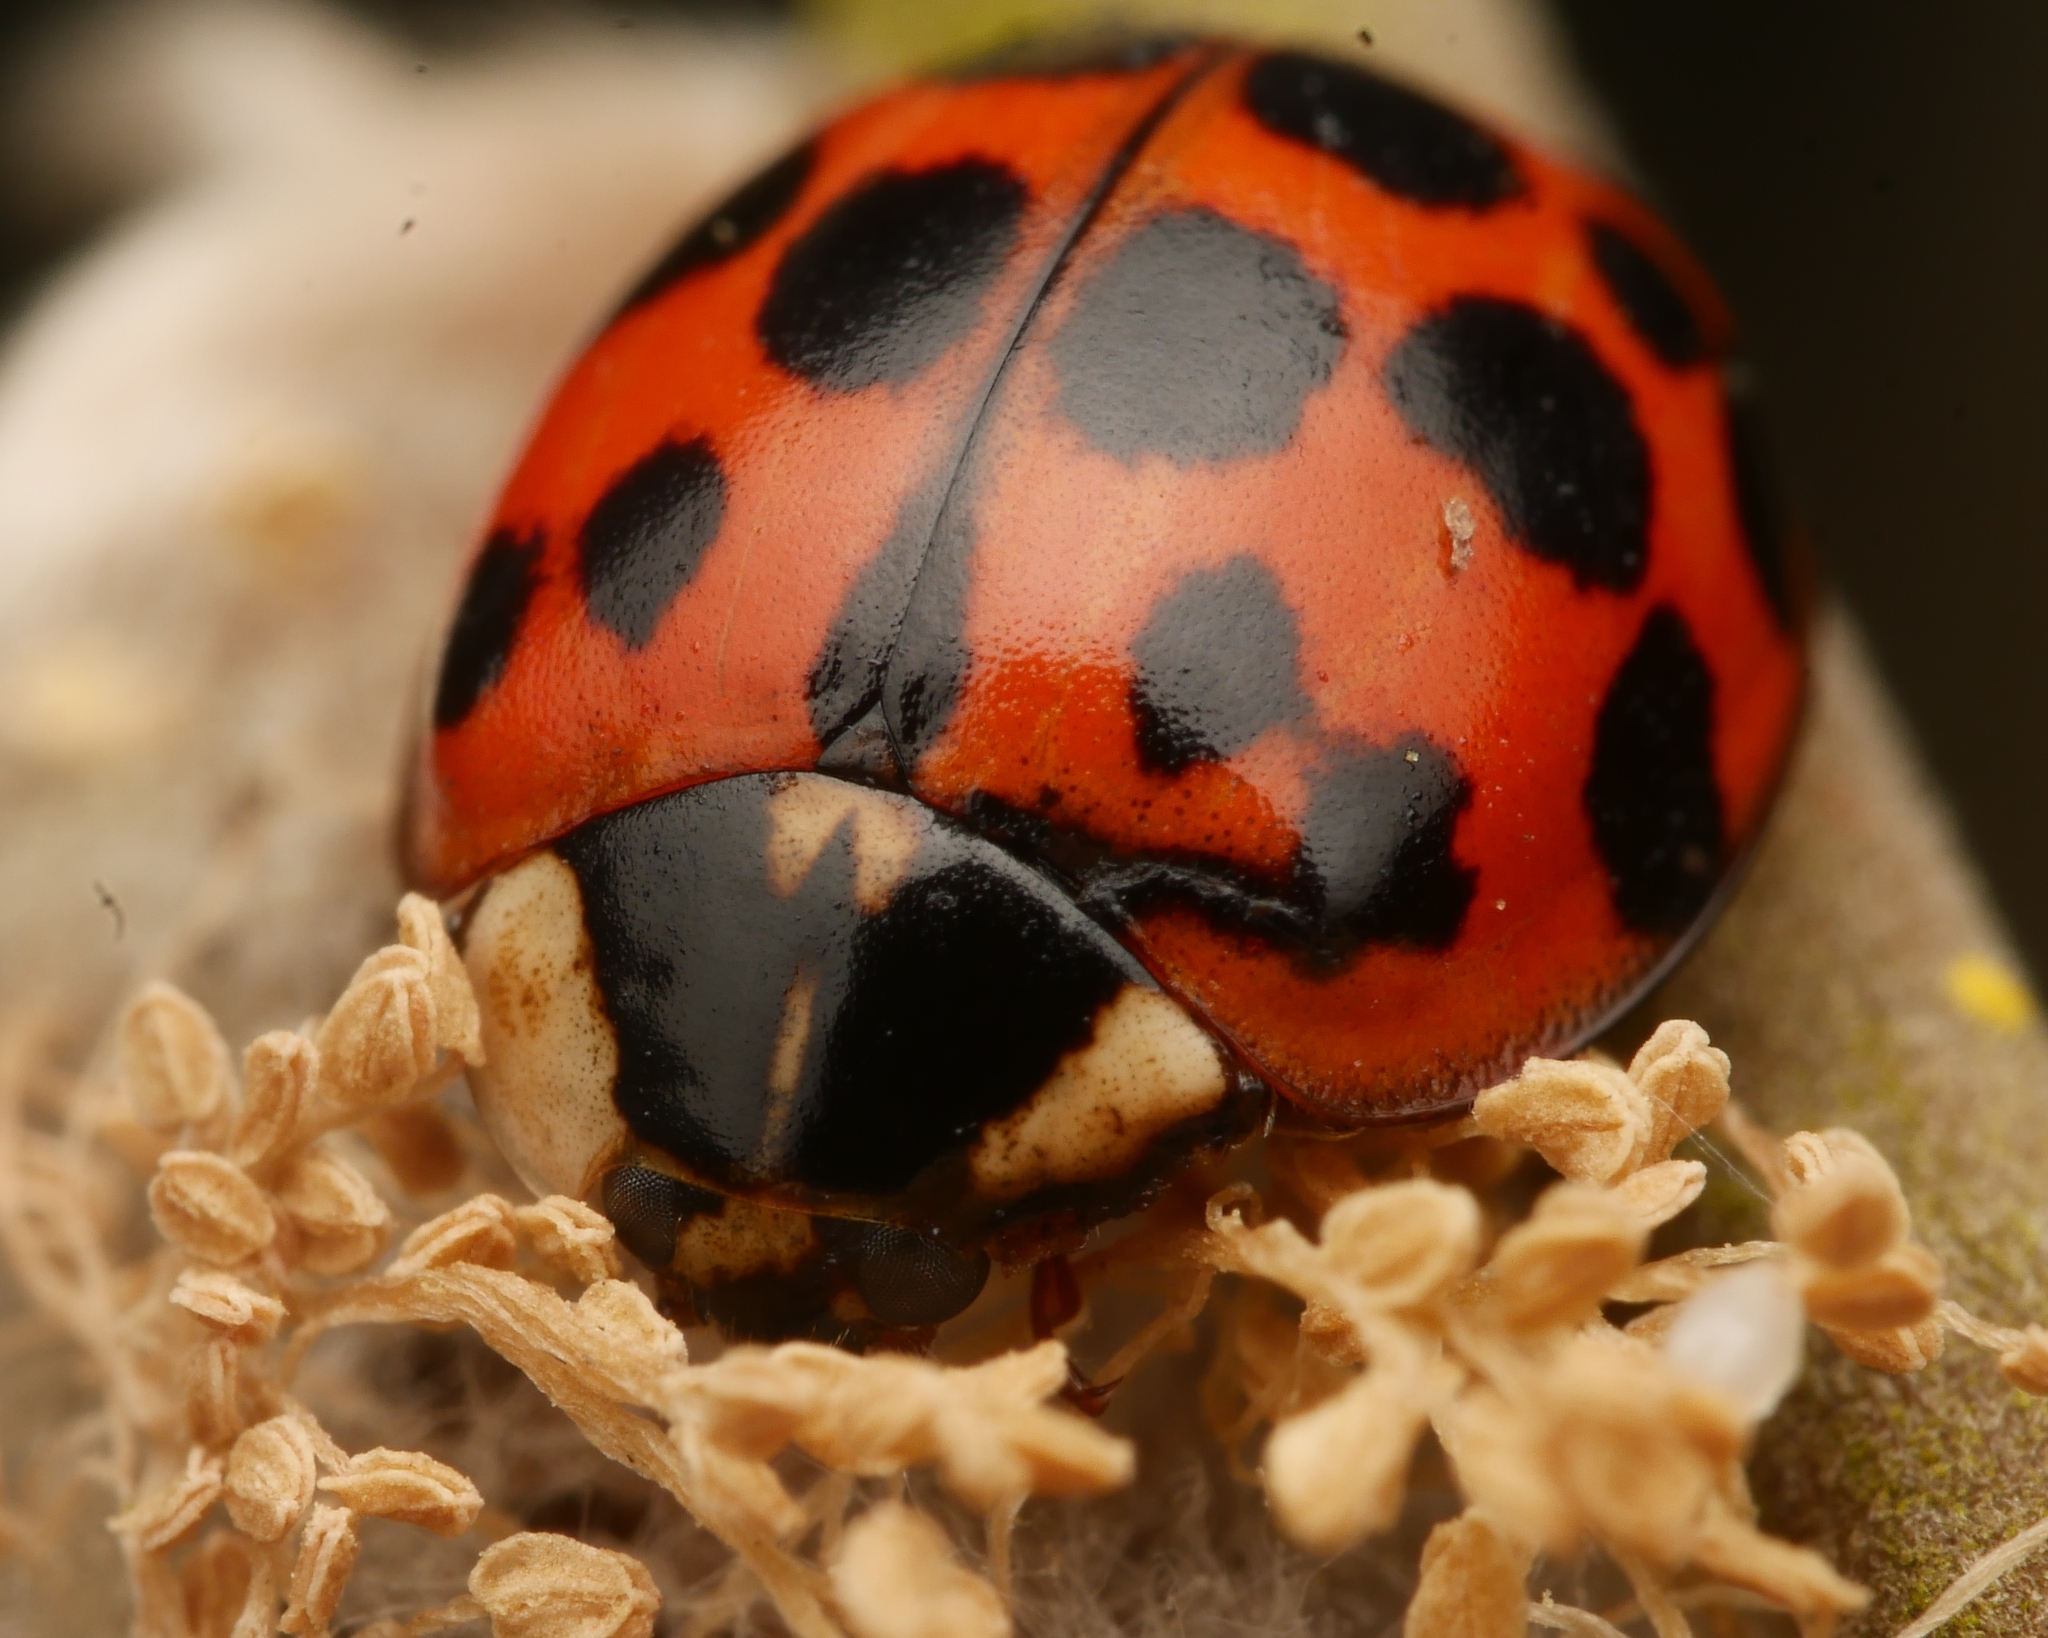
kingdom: Animalia
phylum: Arthropoda
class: Insecta
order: Coleoptera
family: Coccinellidae
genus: Harmonia
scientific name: Harmonia axyridis
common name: Harlequin ladybird
